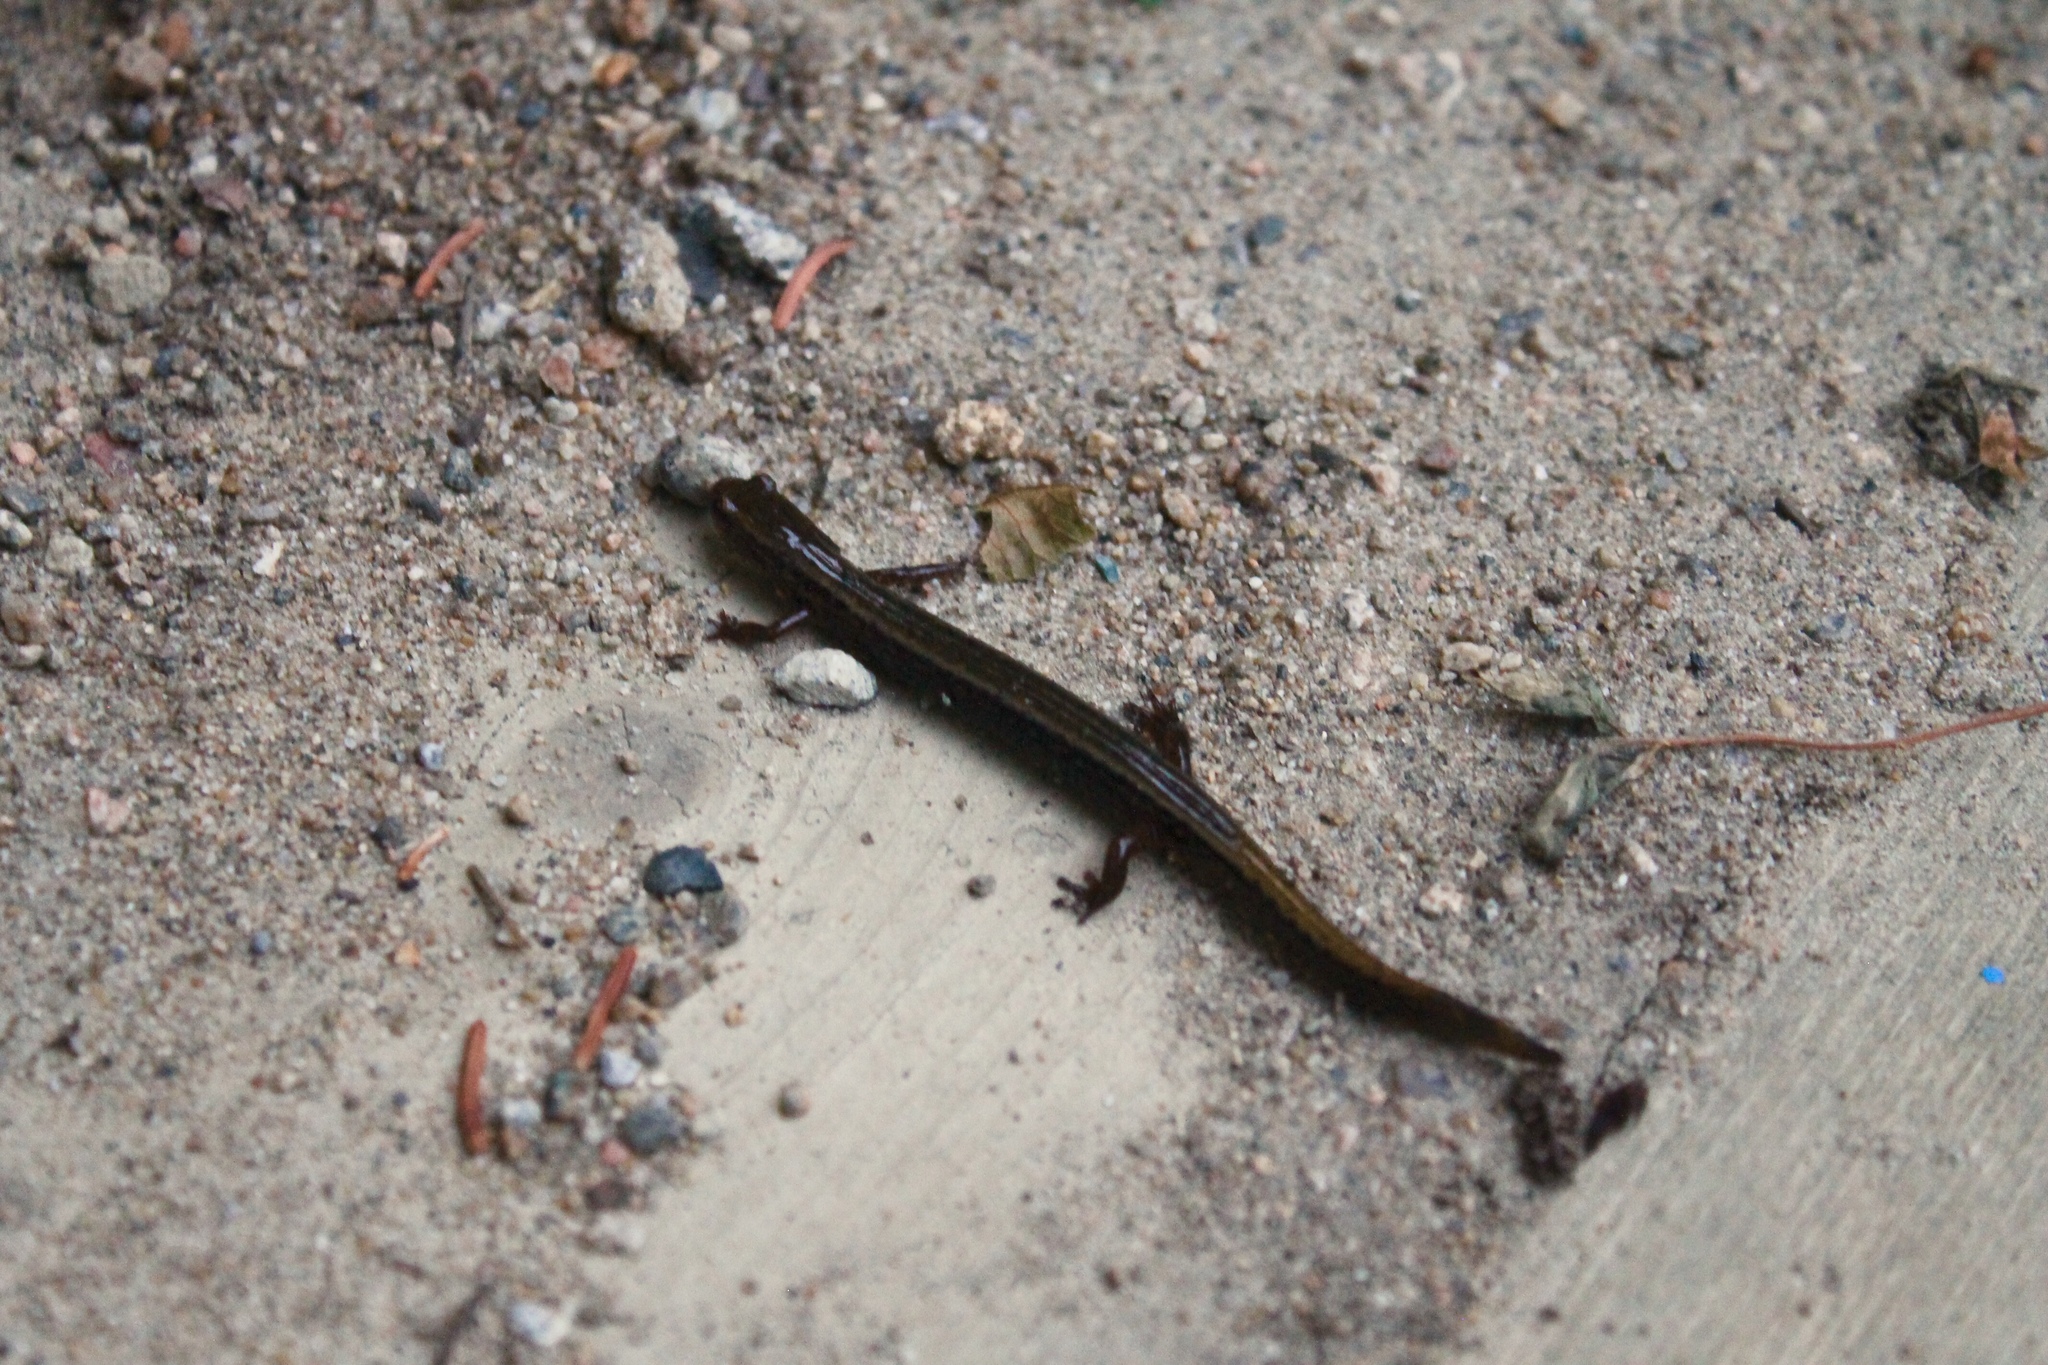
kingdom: Animalia
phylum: Chordata
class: Amphibia
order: Caudata
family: Plethodontidae
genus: Eurycea
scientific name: Eurycea bislineata
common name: Northern two-lined salamander
